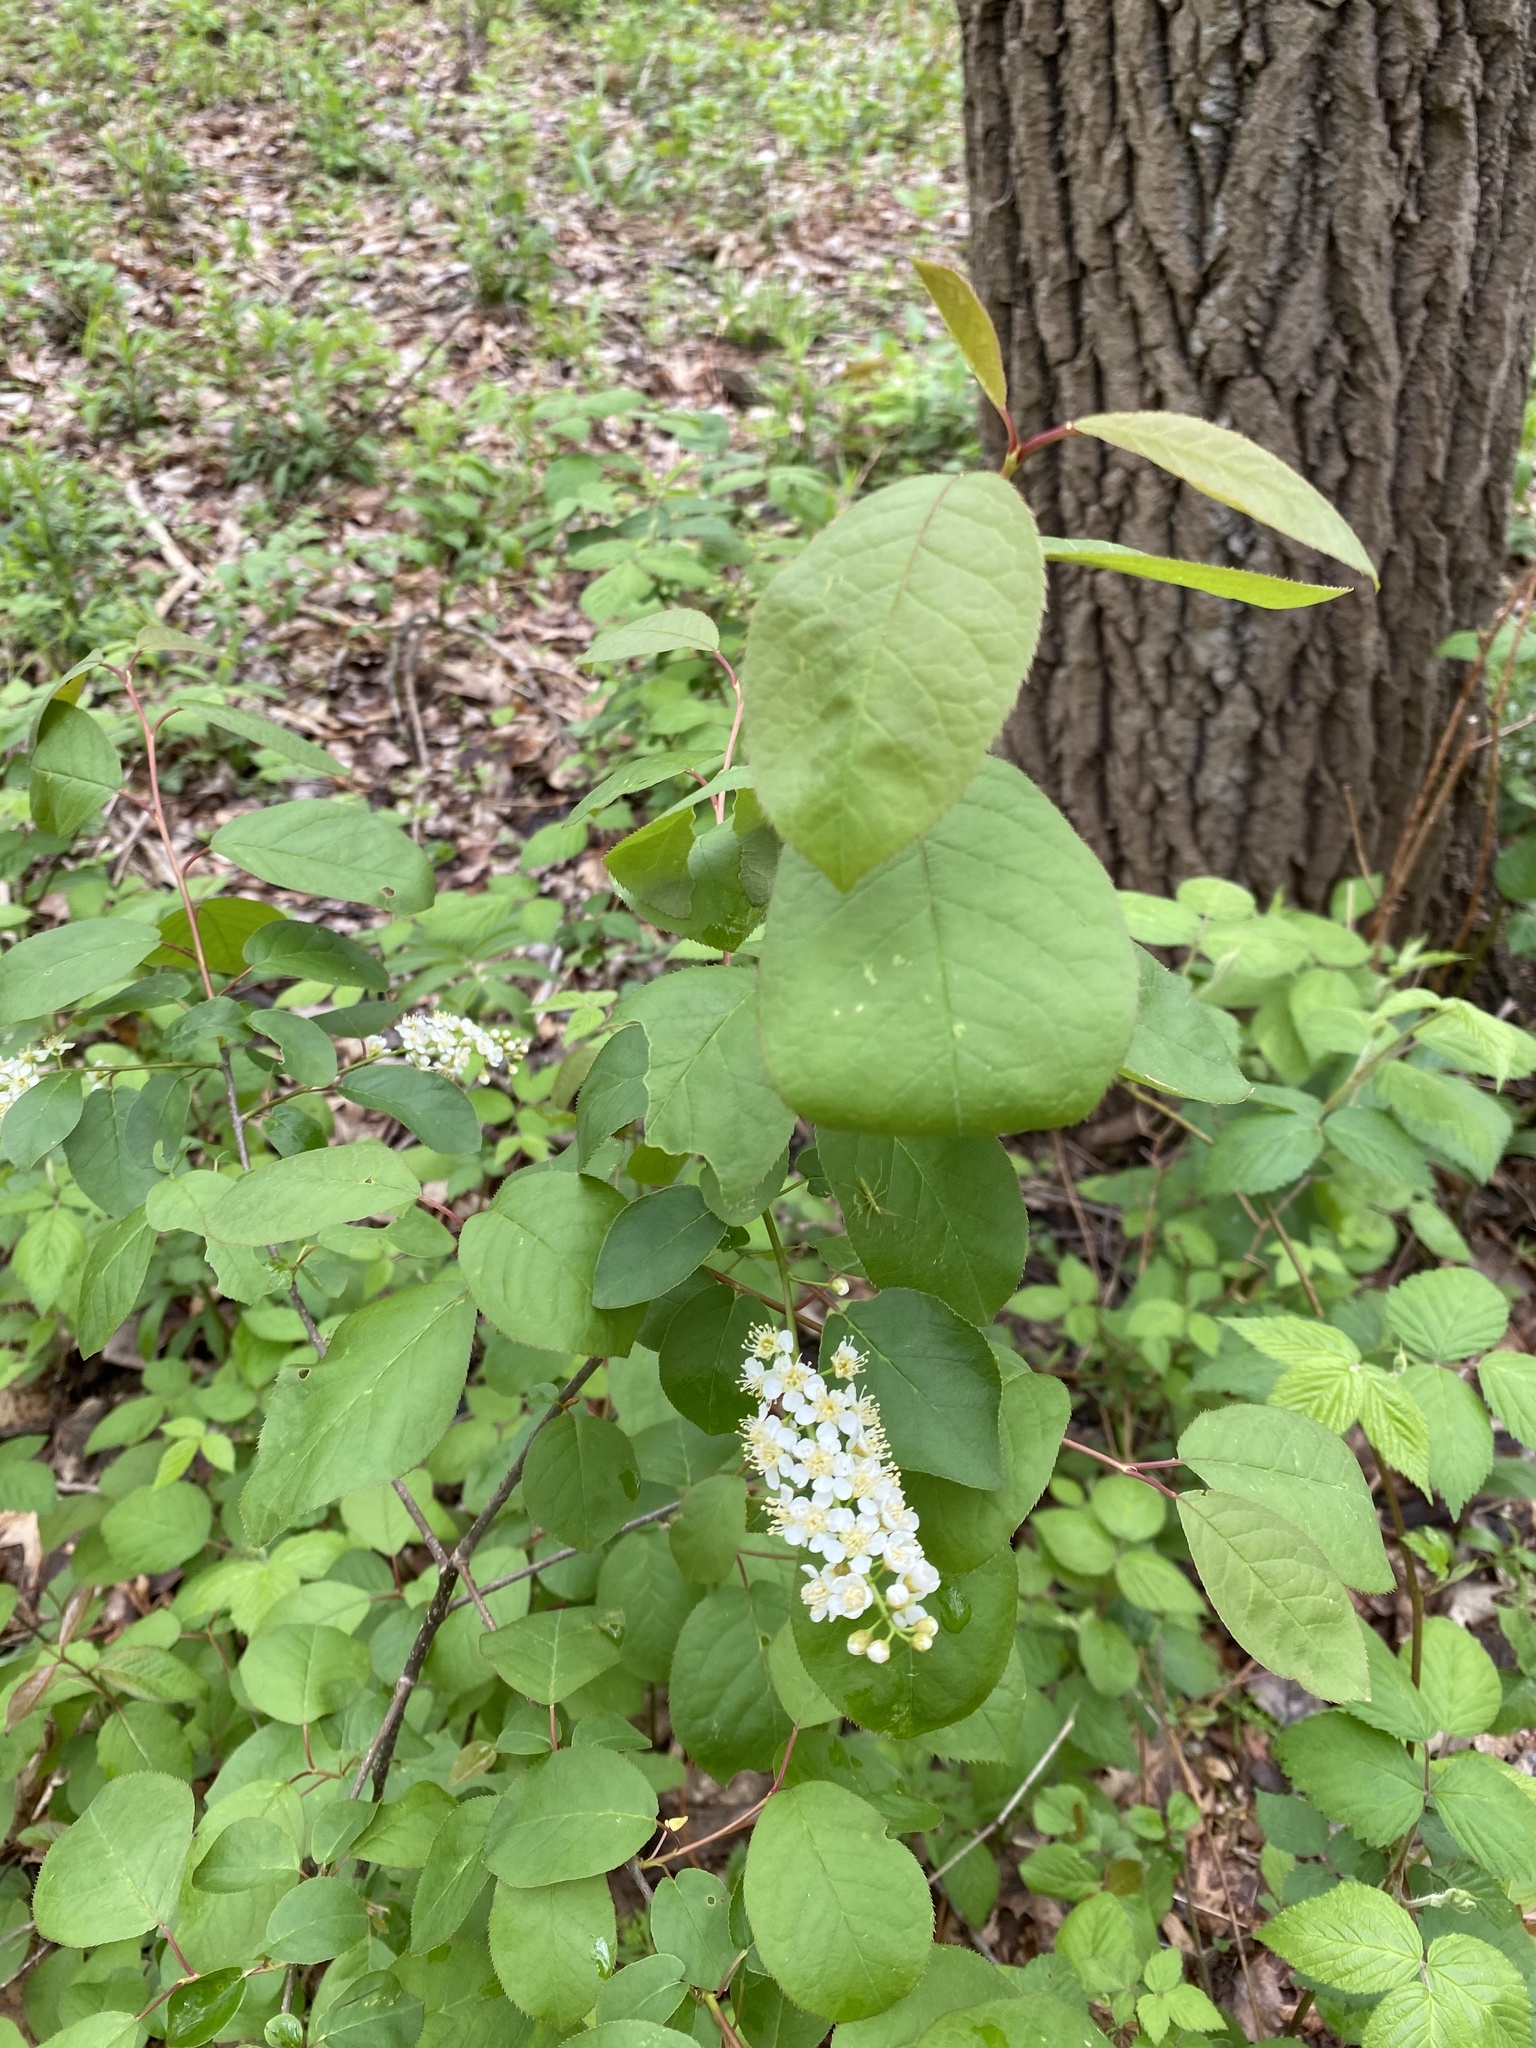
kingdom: Plantae
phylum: Tracheophyta
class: Magnoliopsida
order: Rosales
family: Rosaceae
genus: Prunus
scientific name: Prunus virginiana
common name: Chokecherry
